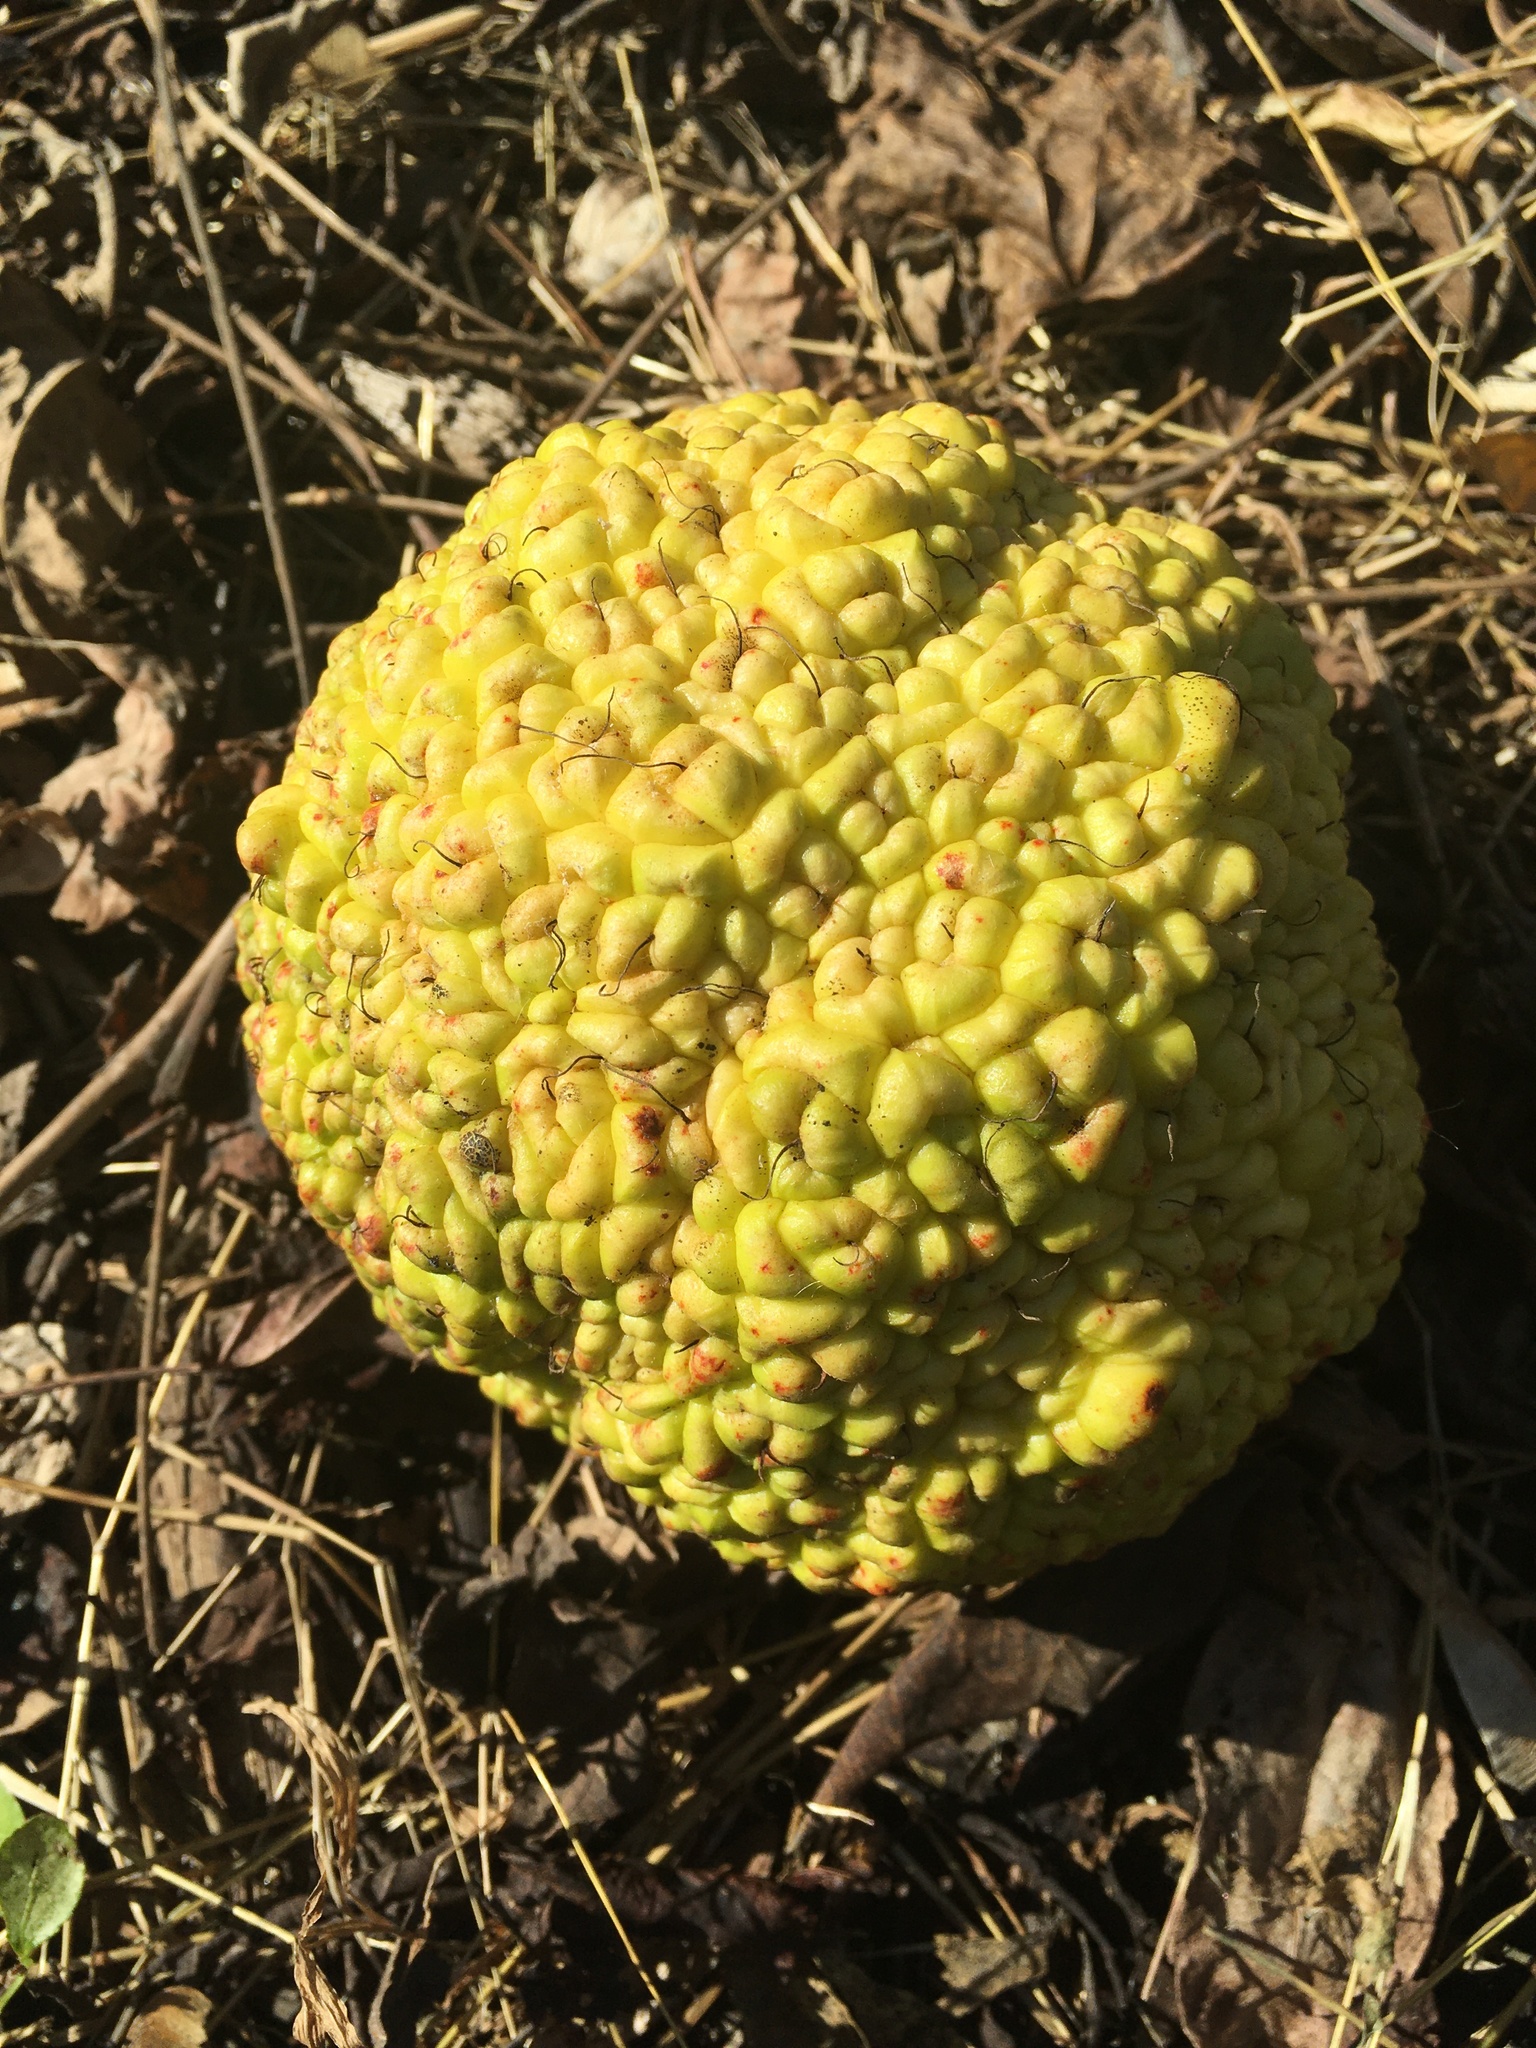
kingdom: Plantae
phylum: Tracheophyta
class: Magnoliopsida
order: Rosales
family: Moraceae
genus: Maclura
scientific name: Maclura pomifera
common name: Osage-orange
